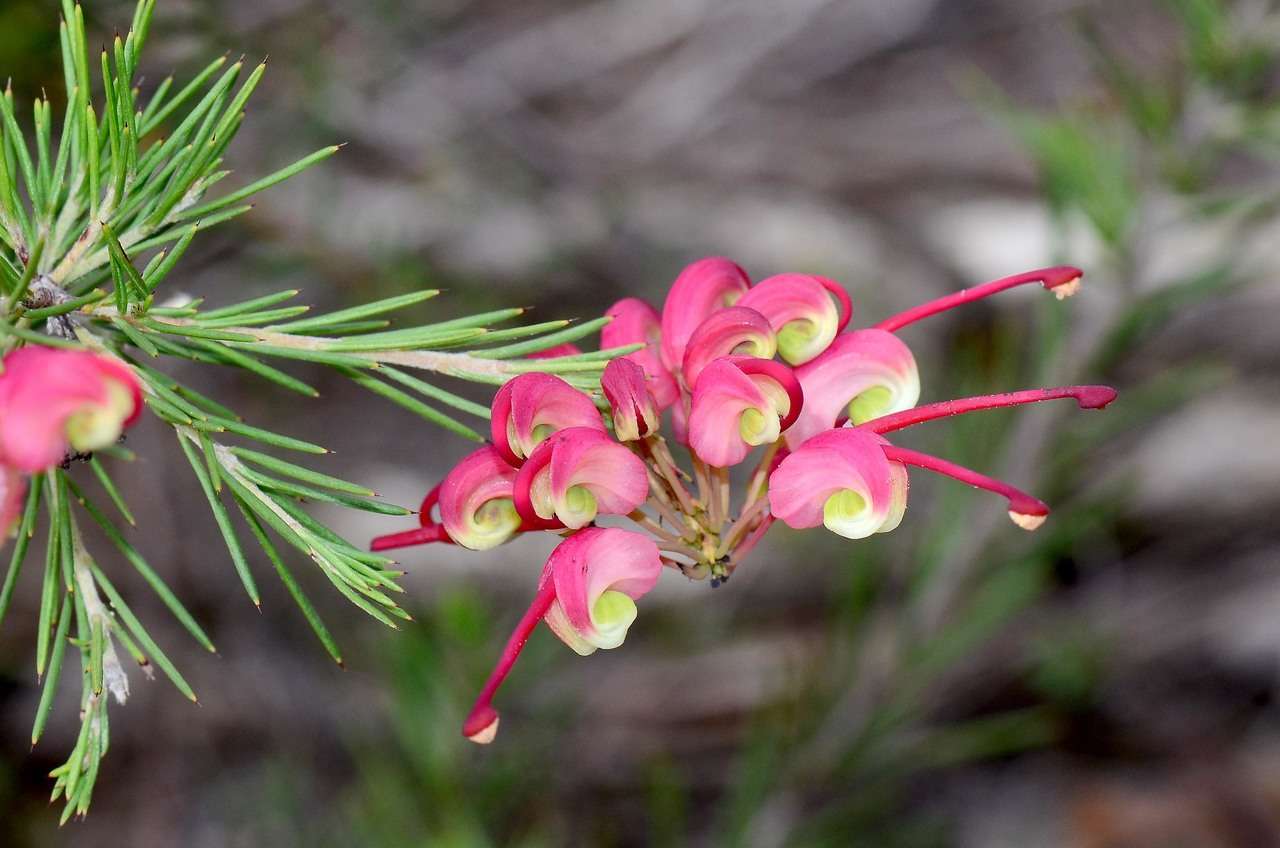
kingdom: Plantae
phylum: Tracheophyta
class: Magnoliopsida
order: Proteales
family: Proteaceae
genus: Grevillea
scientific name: Grevillea rosmarinifolia
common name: Rosemary grevillea
